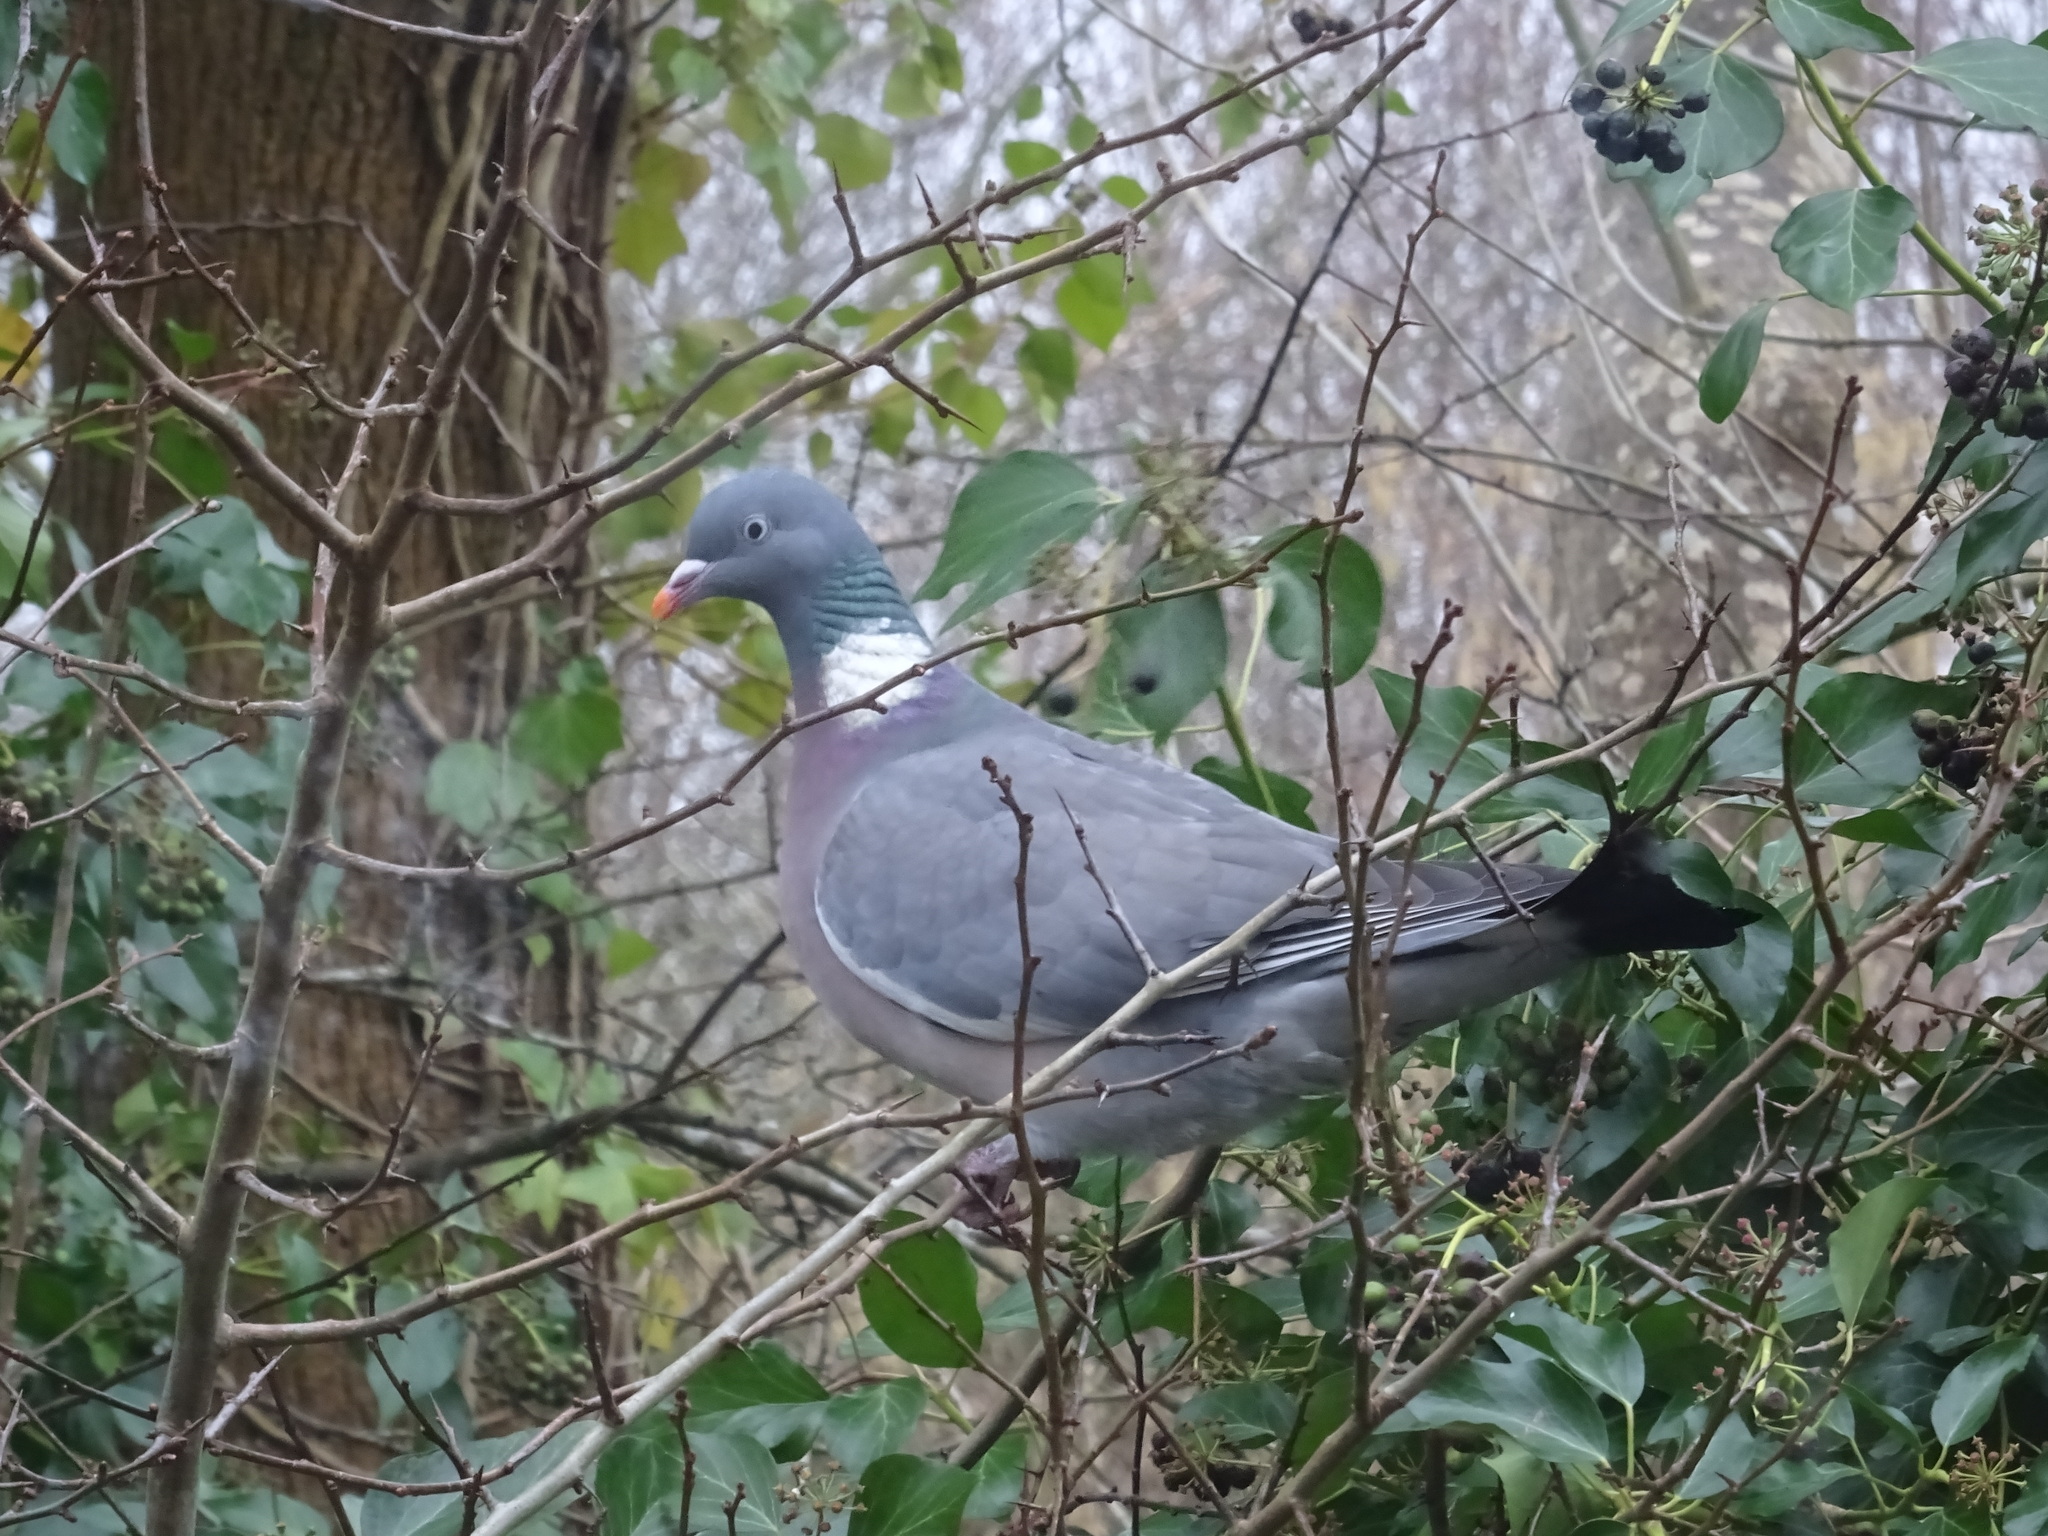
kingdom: Animalia
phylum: Chordata
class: Aves
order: Columbiformes
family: Columbidae
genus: Columba
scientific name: Columba palumbus
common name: Common wood pigeon
